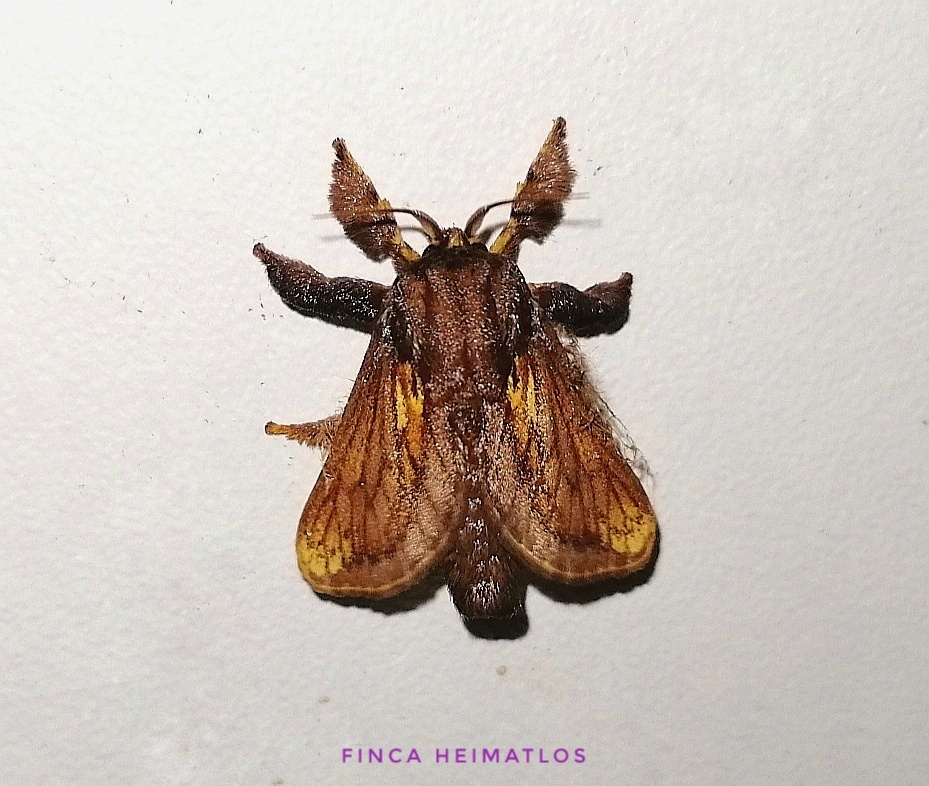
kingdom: Animalia
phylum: Arthropoda
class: Insecta
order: Lepidoptera
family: Limacodidae
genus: Talima
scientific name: Talima ingenour
